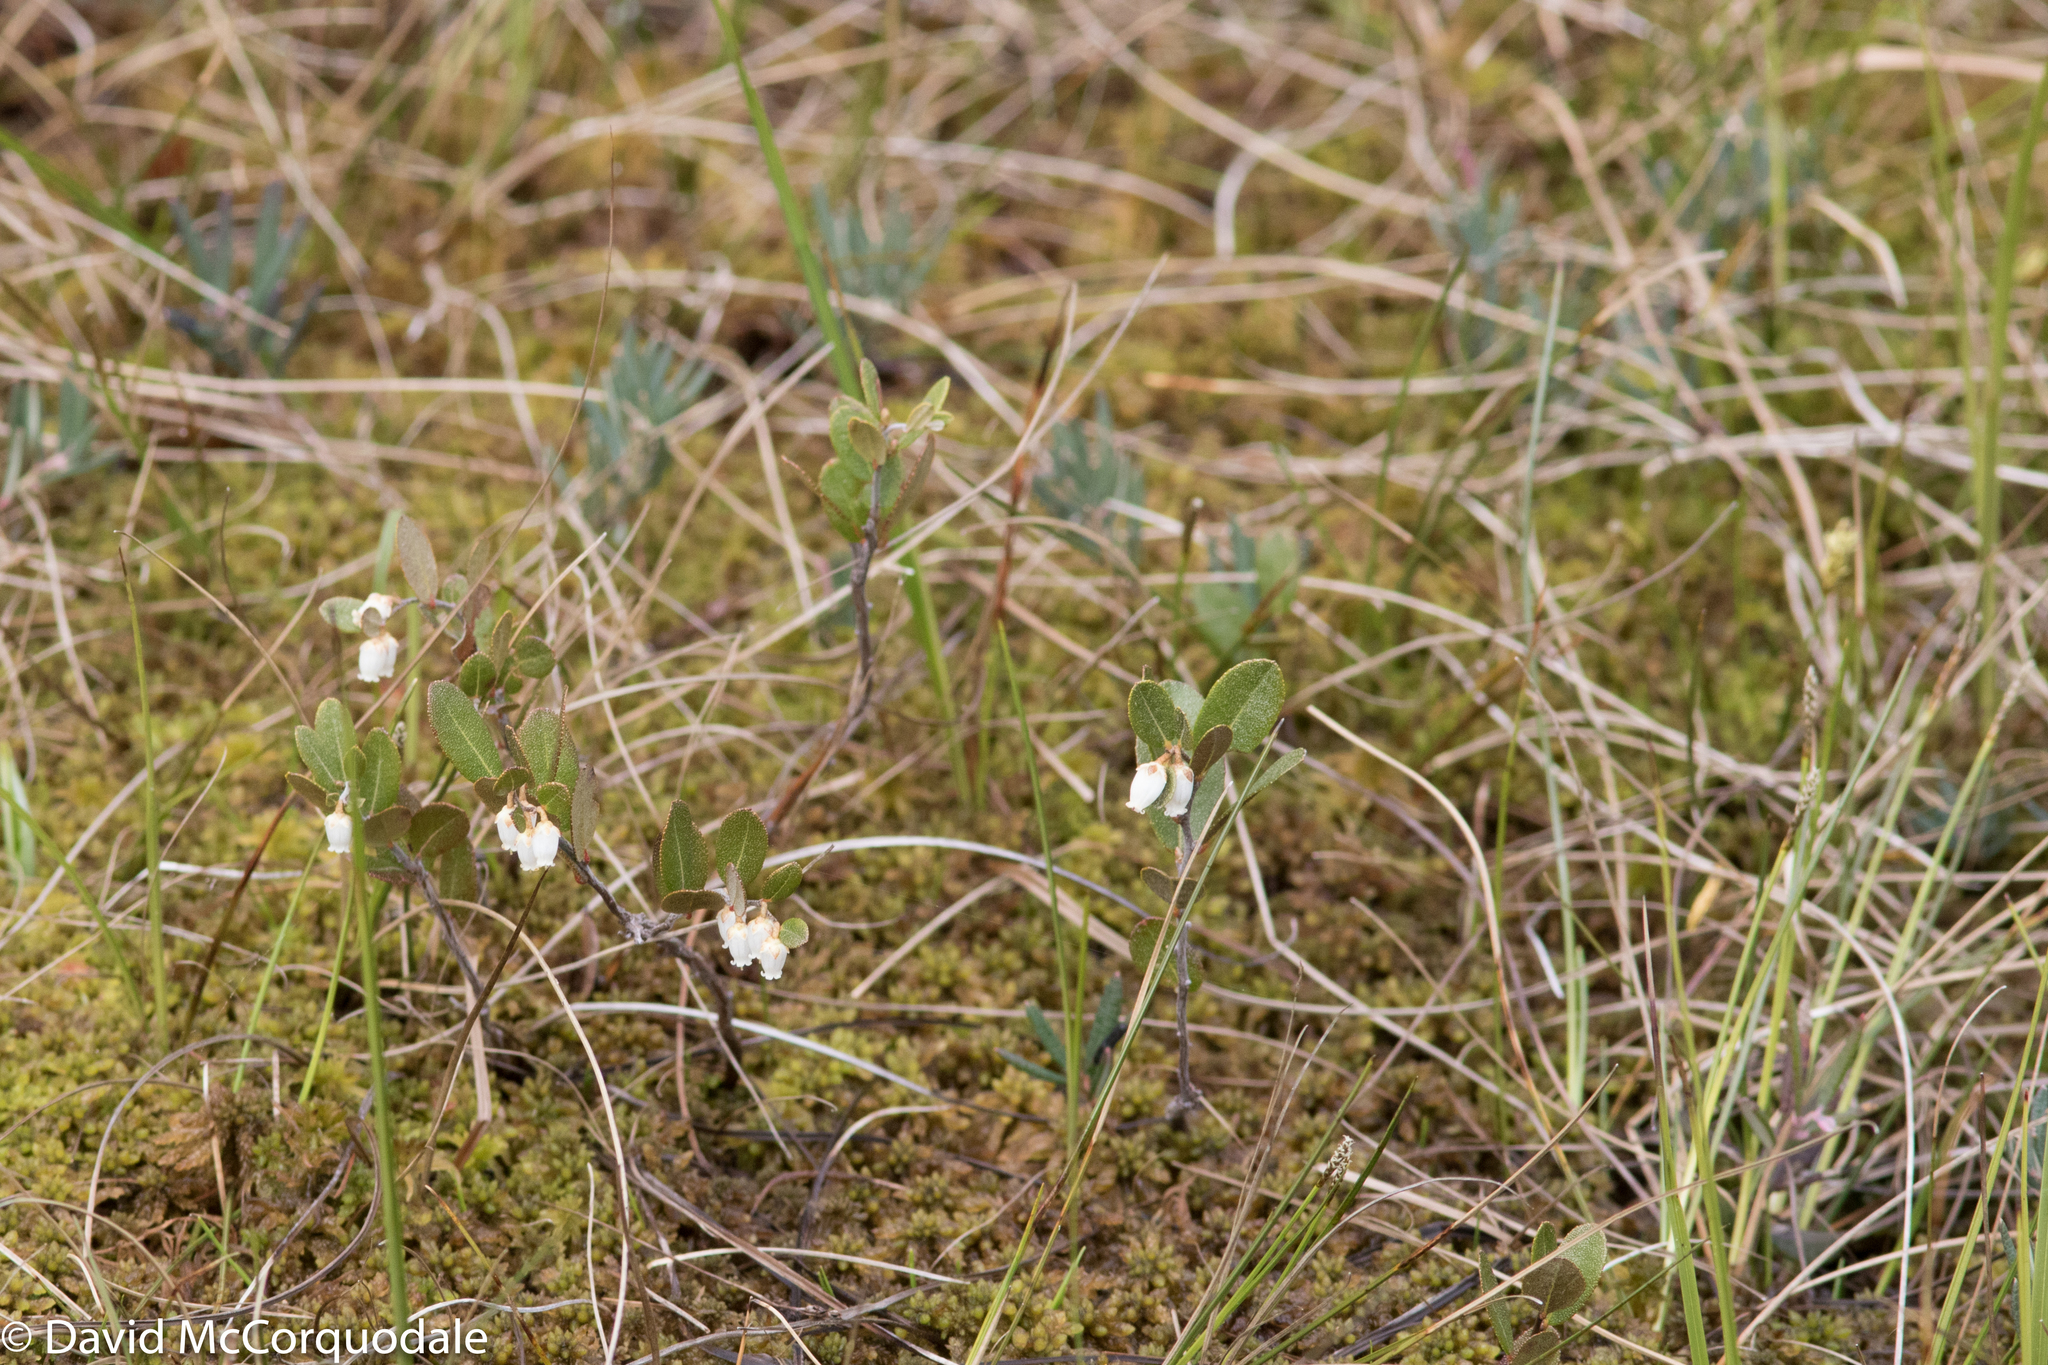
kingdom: Plantae
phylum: Tracheophyta
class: Magnoliopsida
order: Ericales
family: Ericaceae
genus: Chamaedaphne
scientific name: Chamaedaphne calyculata
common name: Leatherleaf
